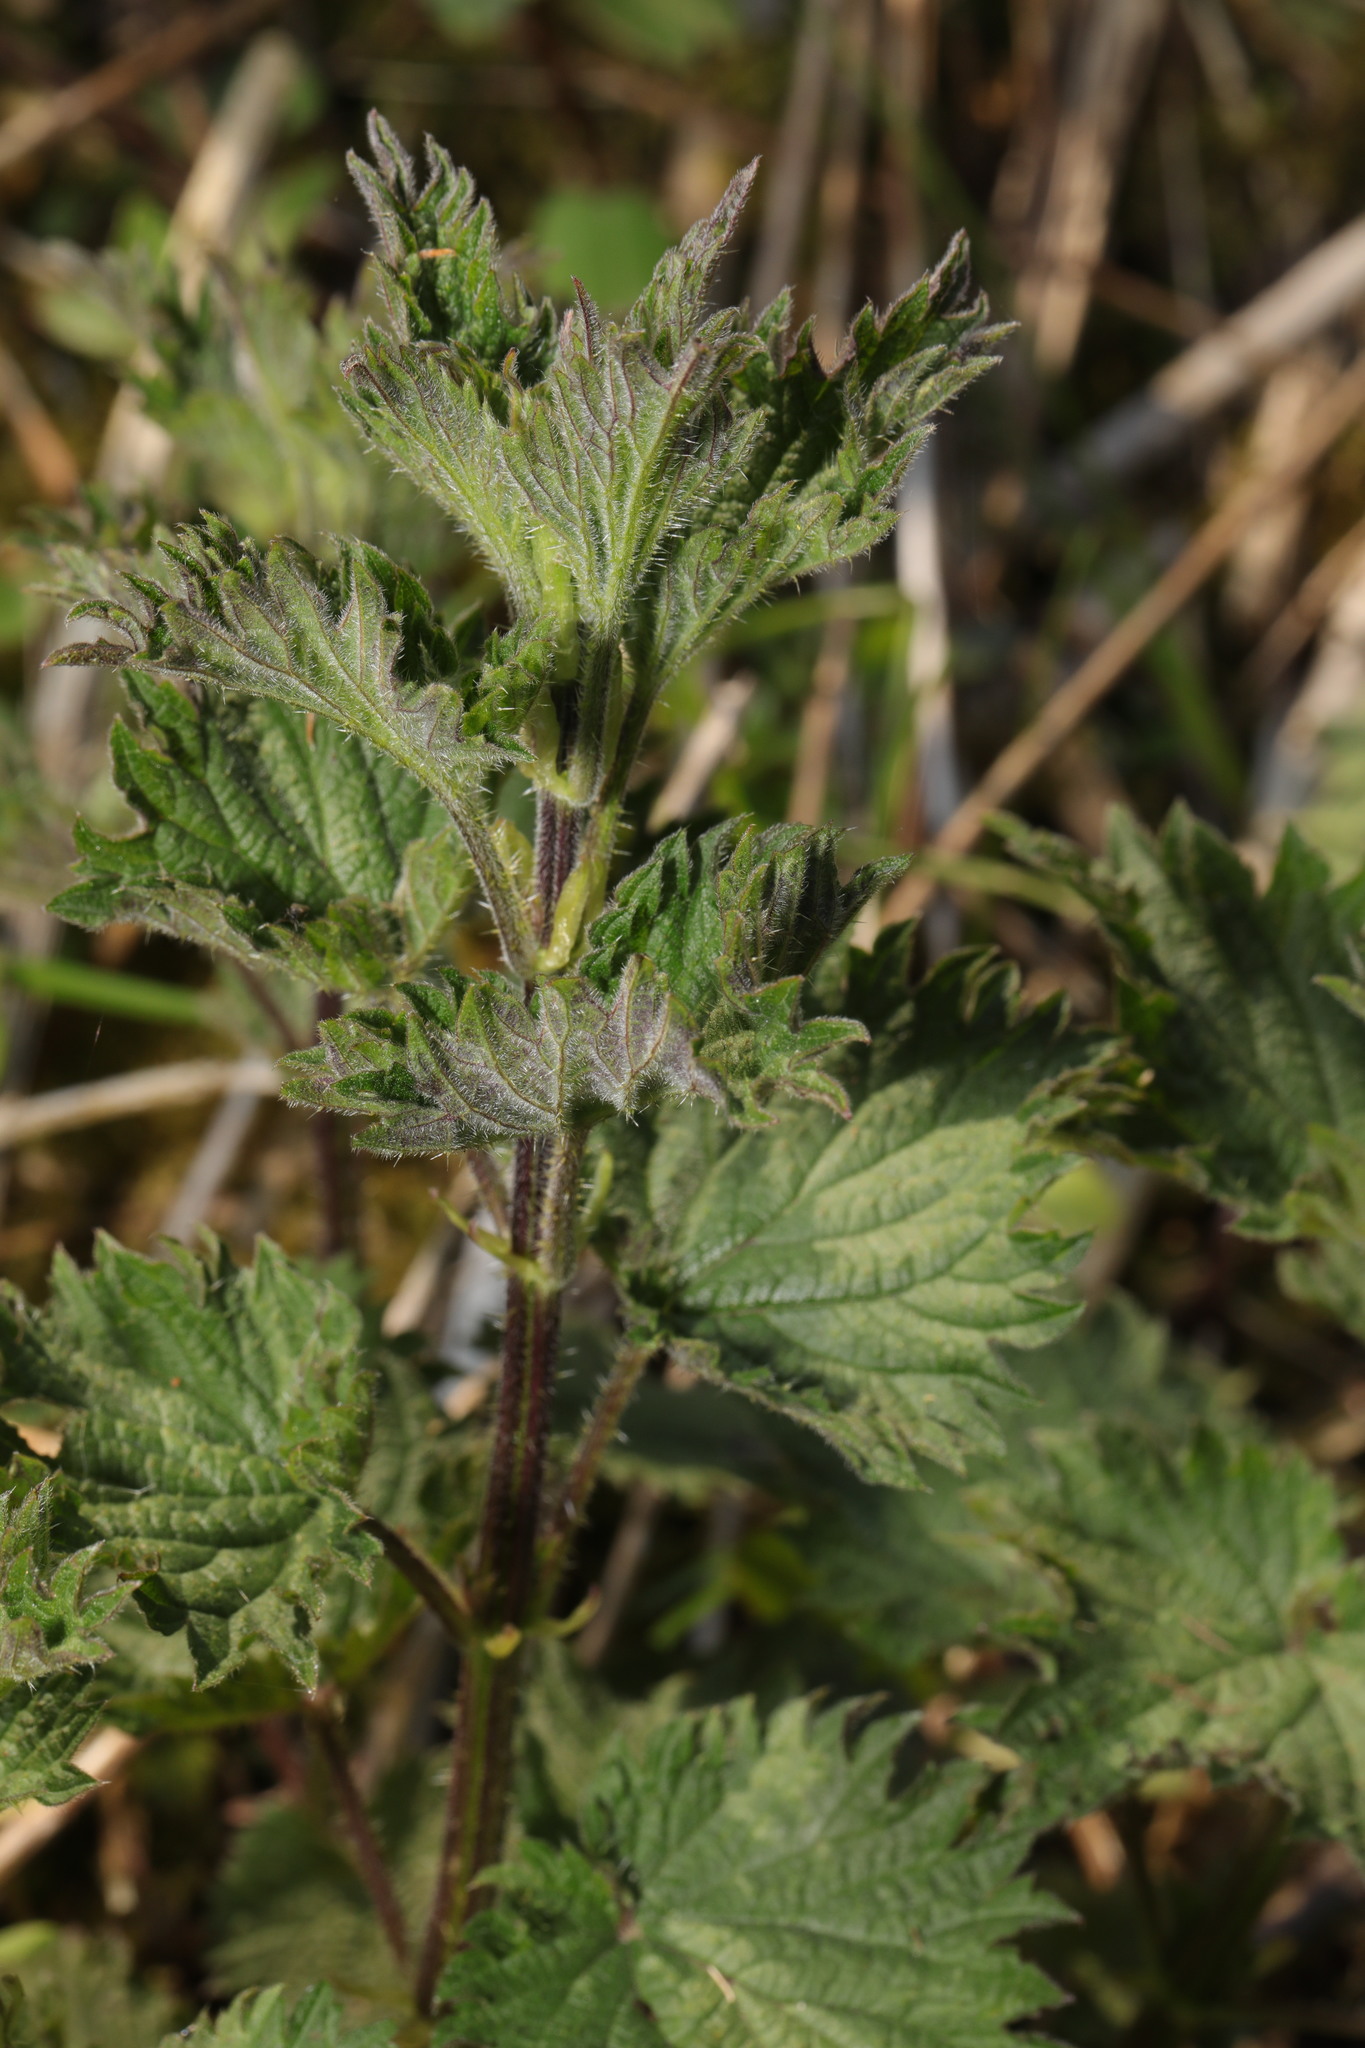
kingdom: Plantae
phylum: Tracheophyta
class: Magnoliopsida
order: Rosales
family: Urticaceae
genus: Urtica
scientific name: Urtica dioica
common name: Common nettle
